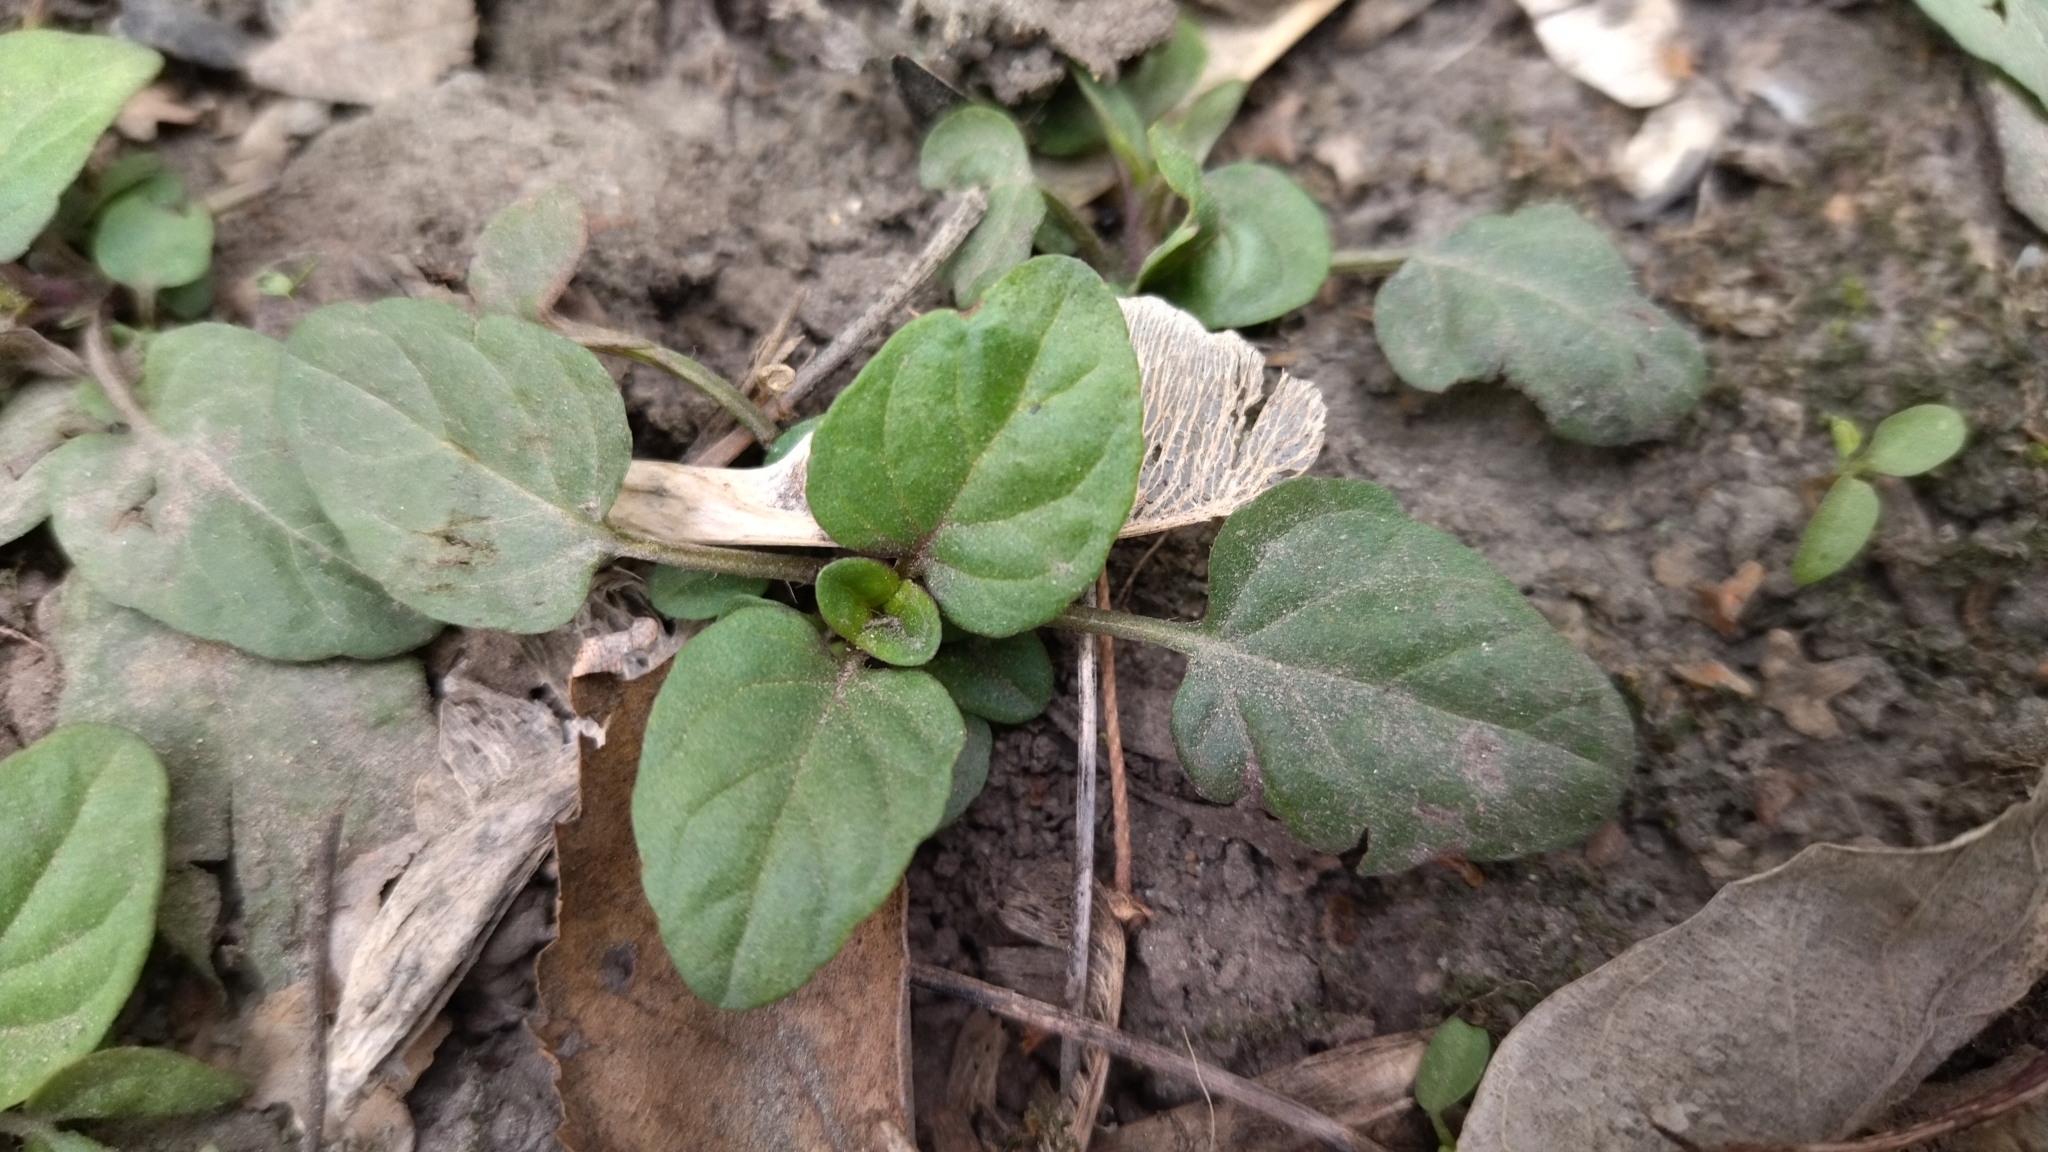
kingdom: Plantae
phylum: Tracheophyta
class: Magnoliopsida
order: Lamiales
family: Lamiaceae
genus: Prunella
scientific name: Prunella vulgaris
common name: Heal-all
